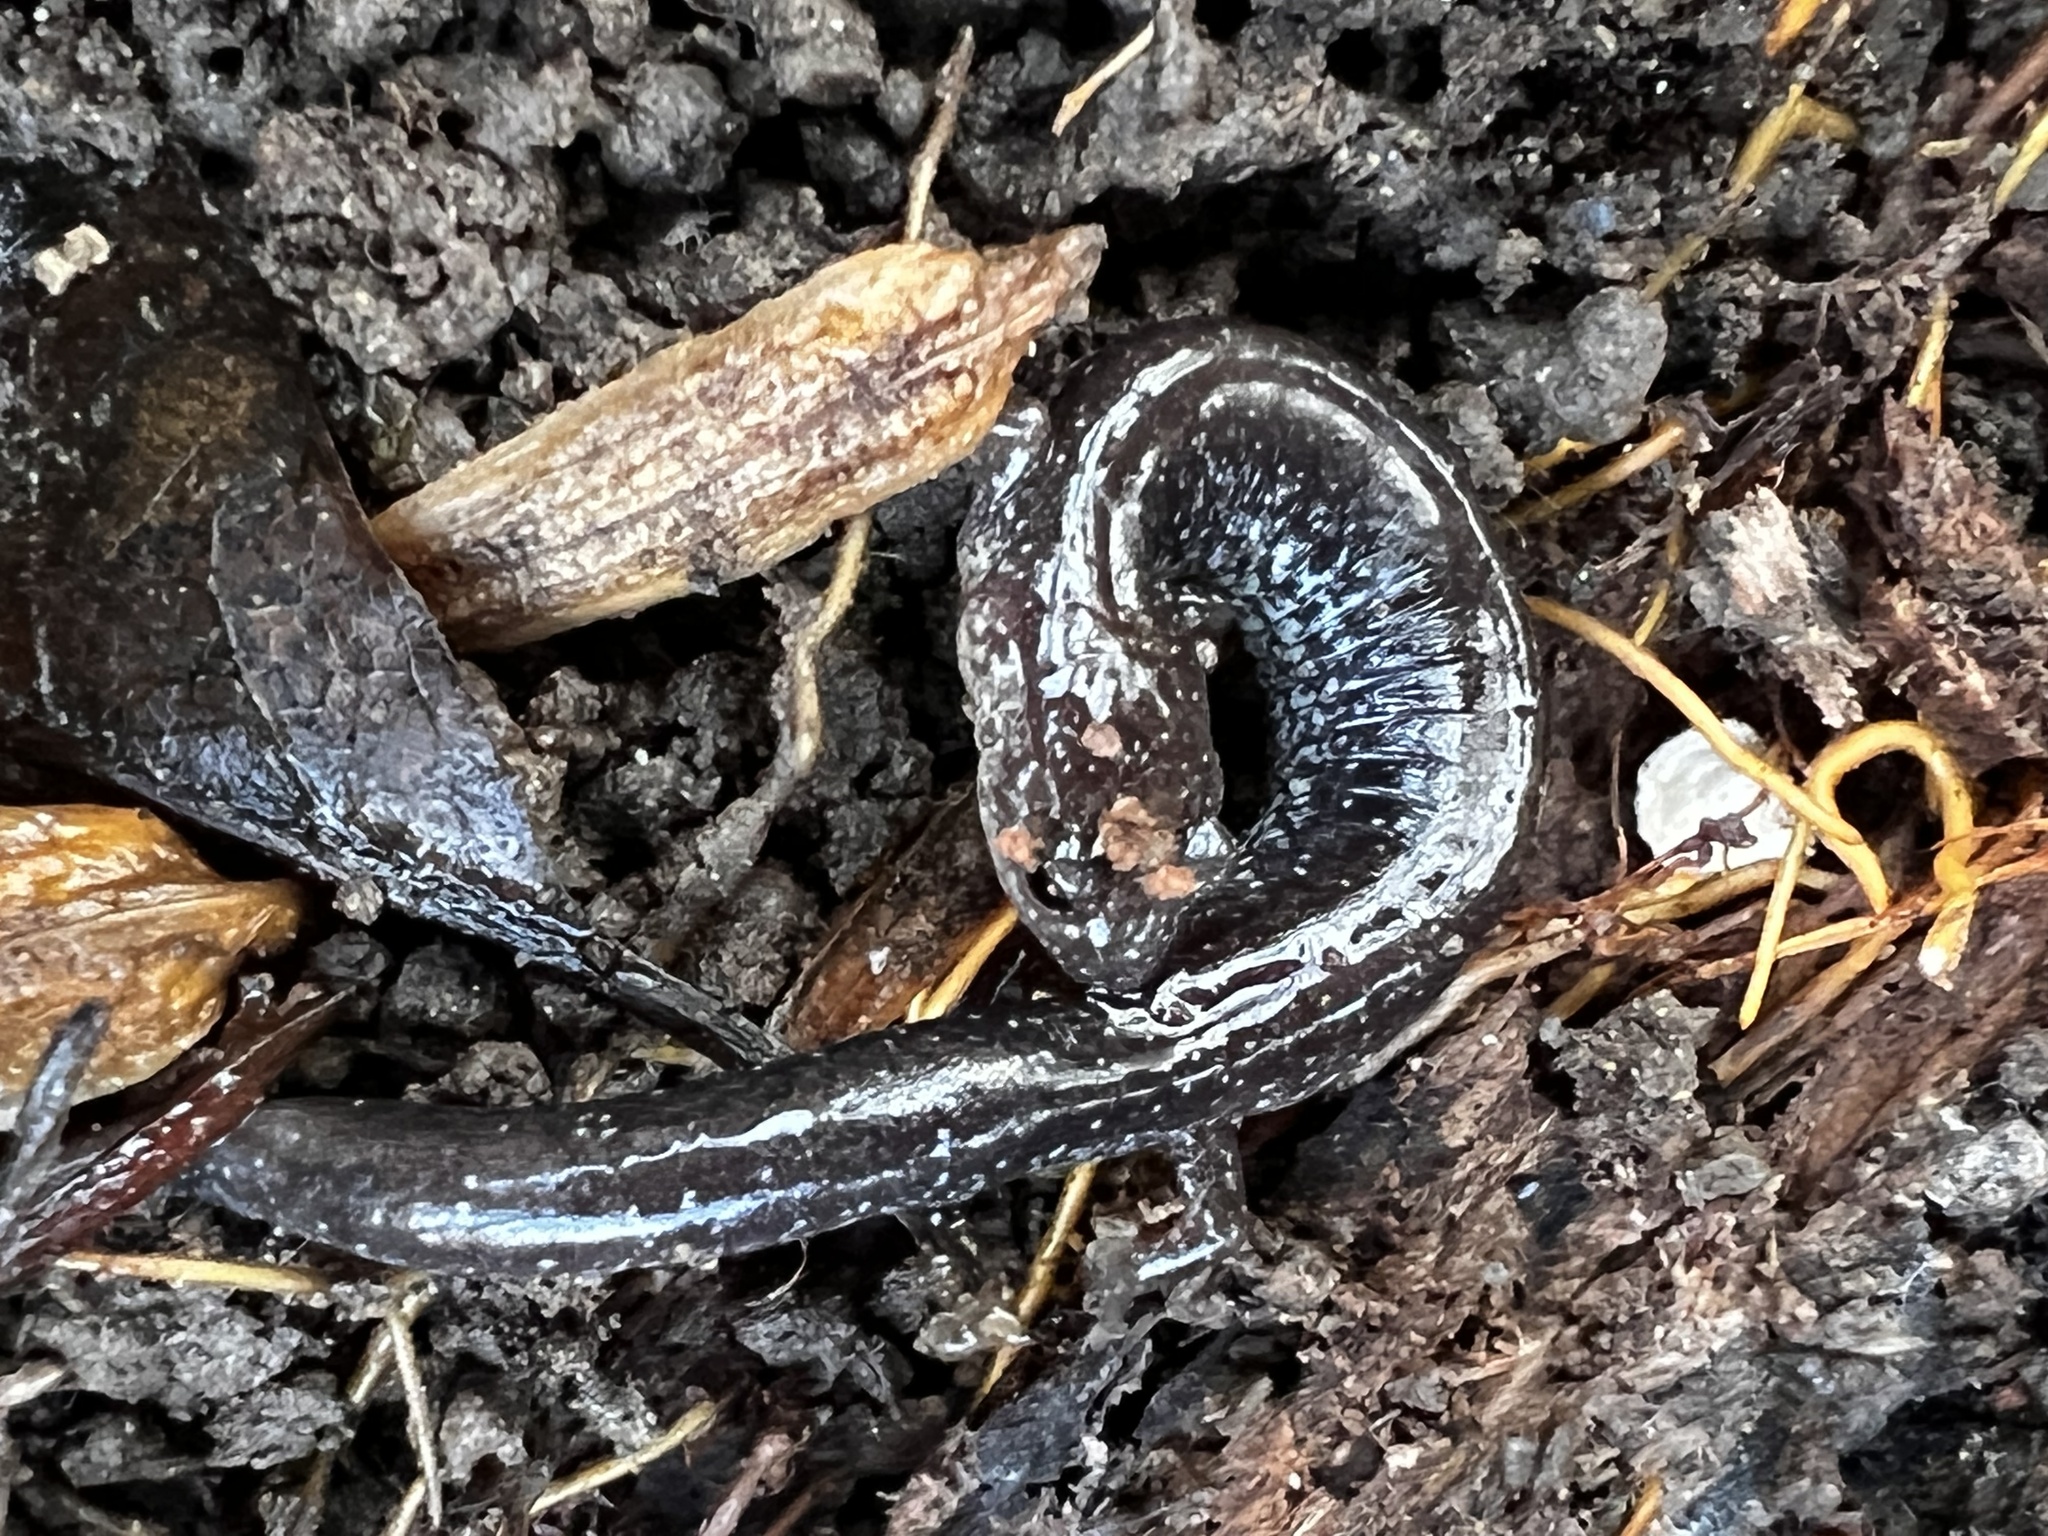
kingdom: Animalia
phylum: Chordata
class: Amphibia
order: Caudata
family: Plethodontidae
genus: Plethodon
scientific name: Plethodon cinereus
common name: Redback salamander
